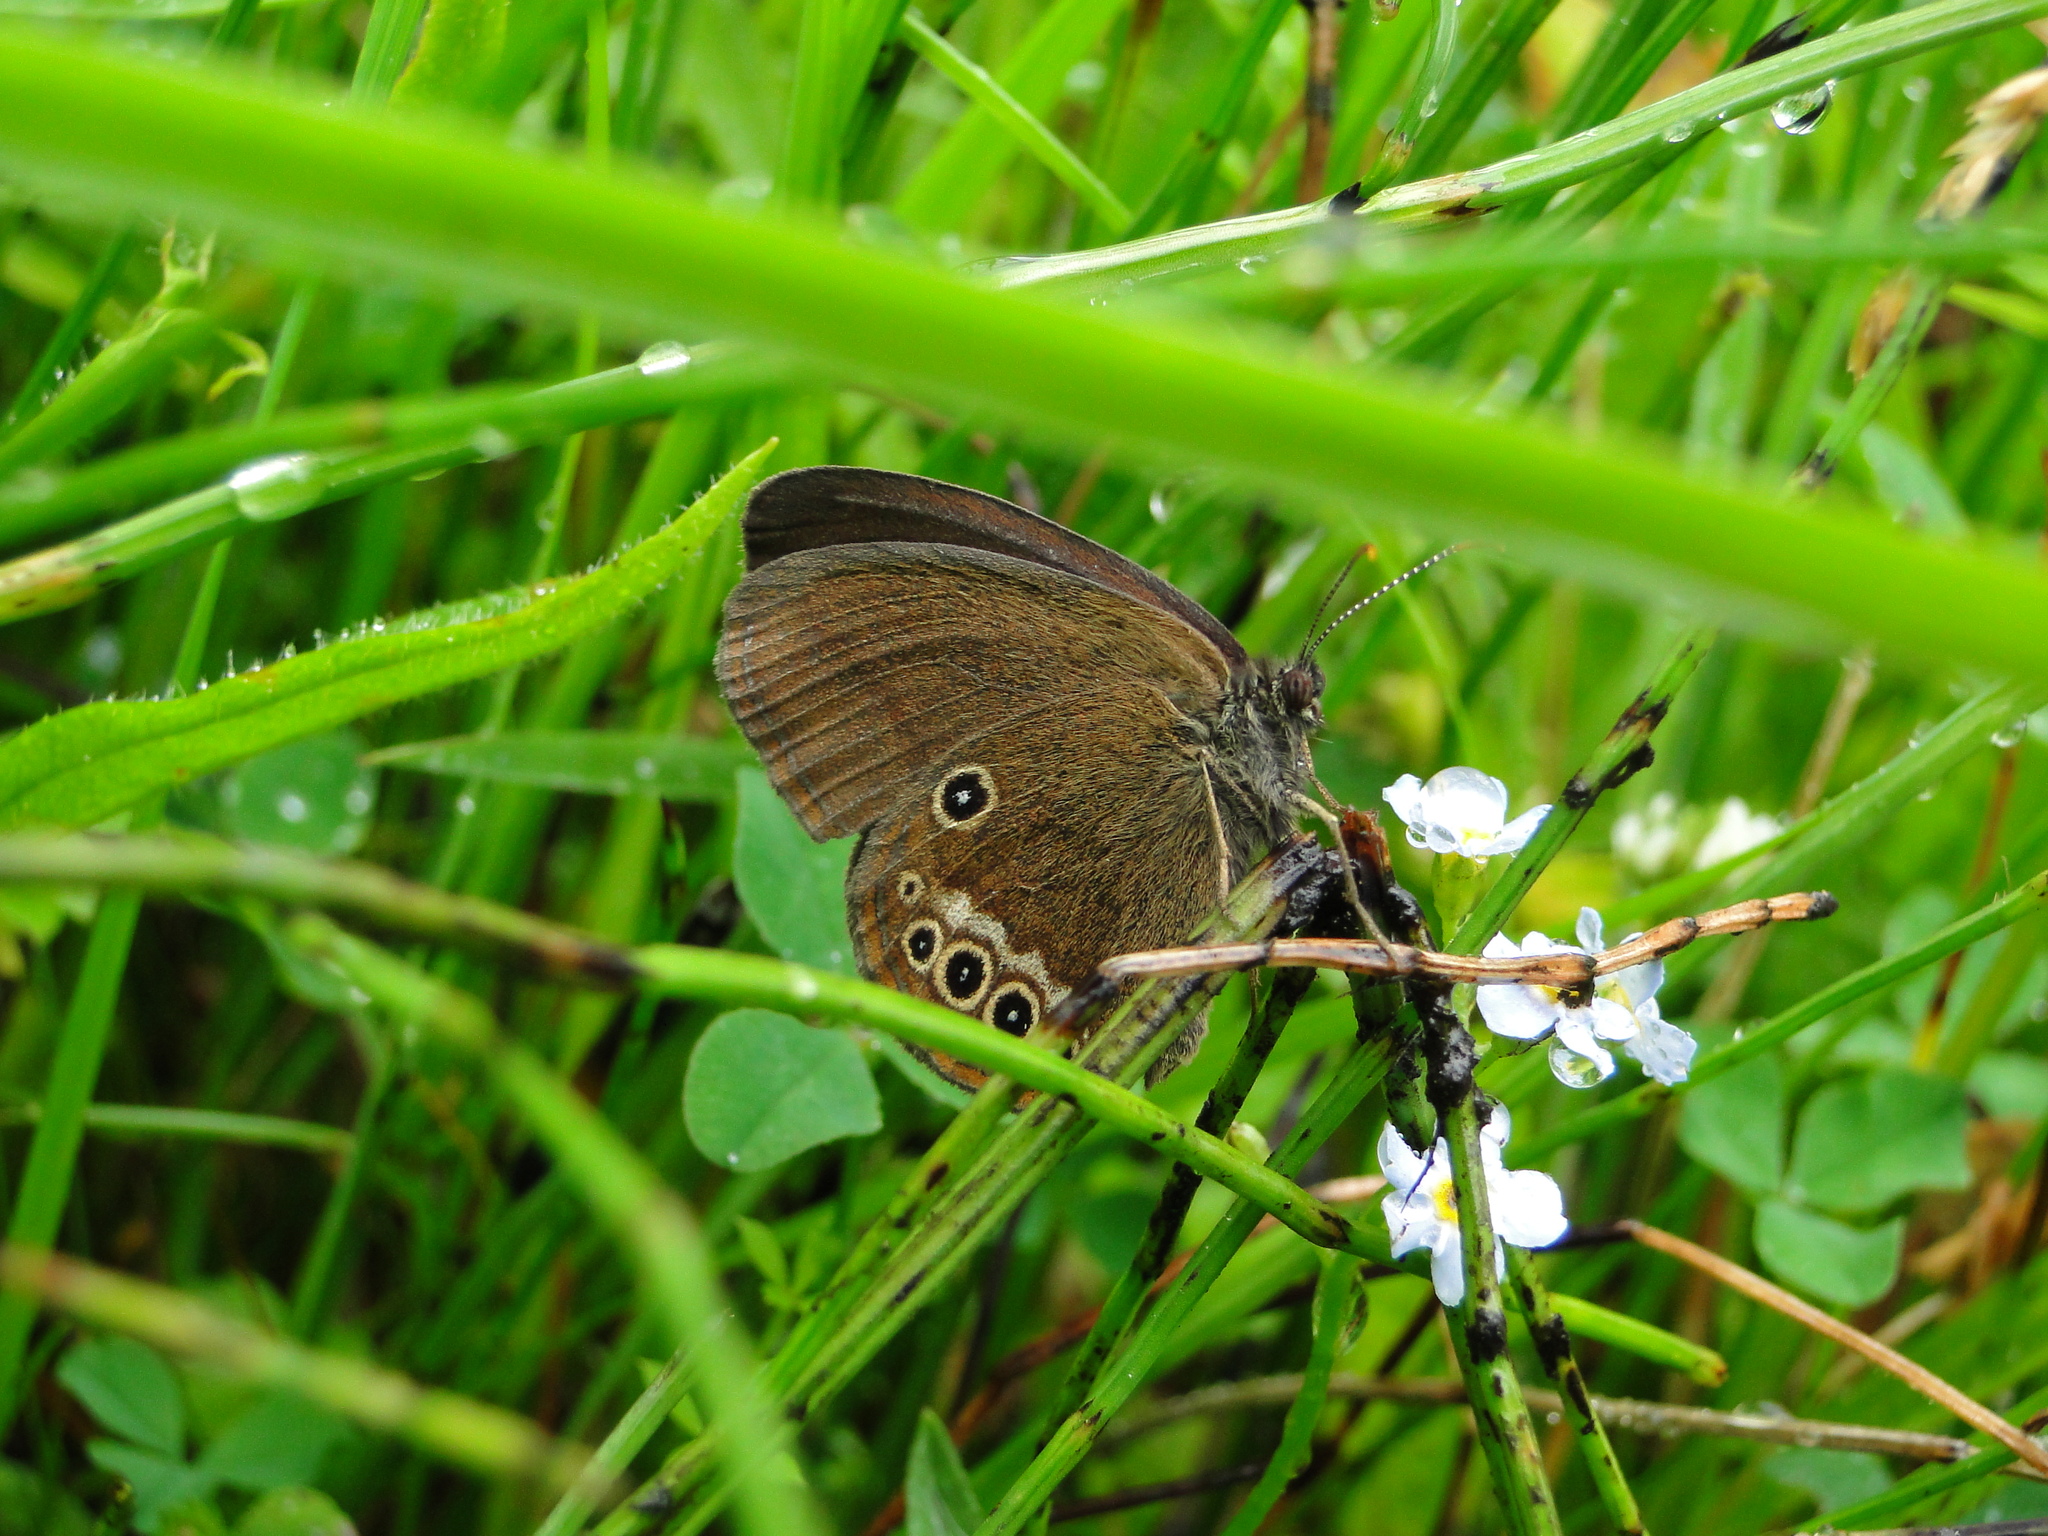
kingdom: Animalia
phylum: Arthropoda
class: Insecta
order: Lepidoptera
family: Nymphalidae
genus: Coenonympha
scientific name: Coenonympha oedippus
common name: False ringlet
